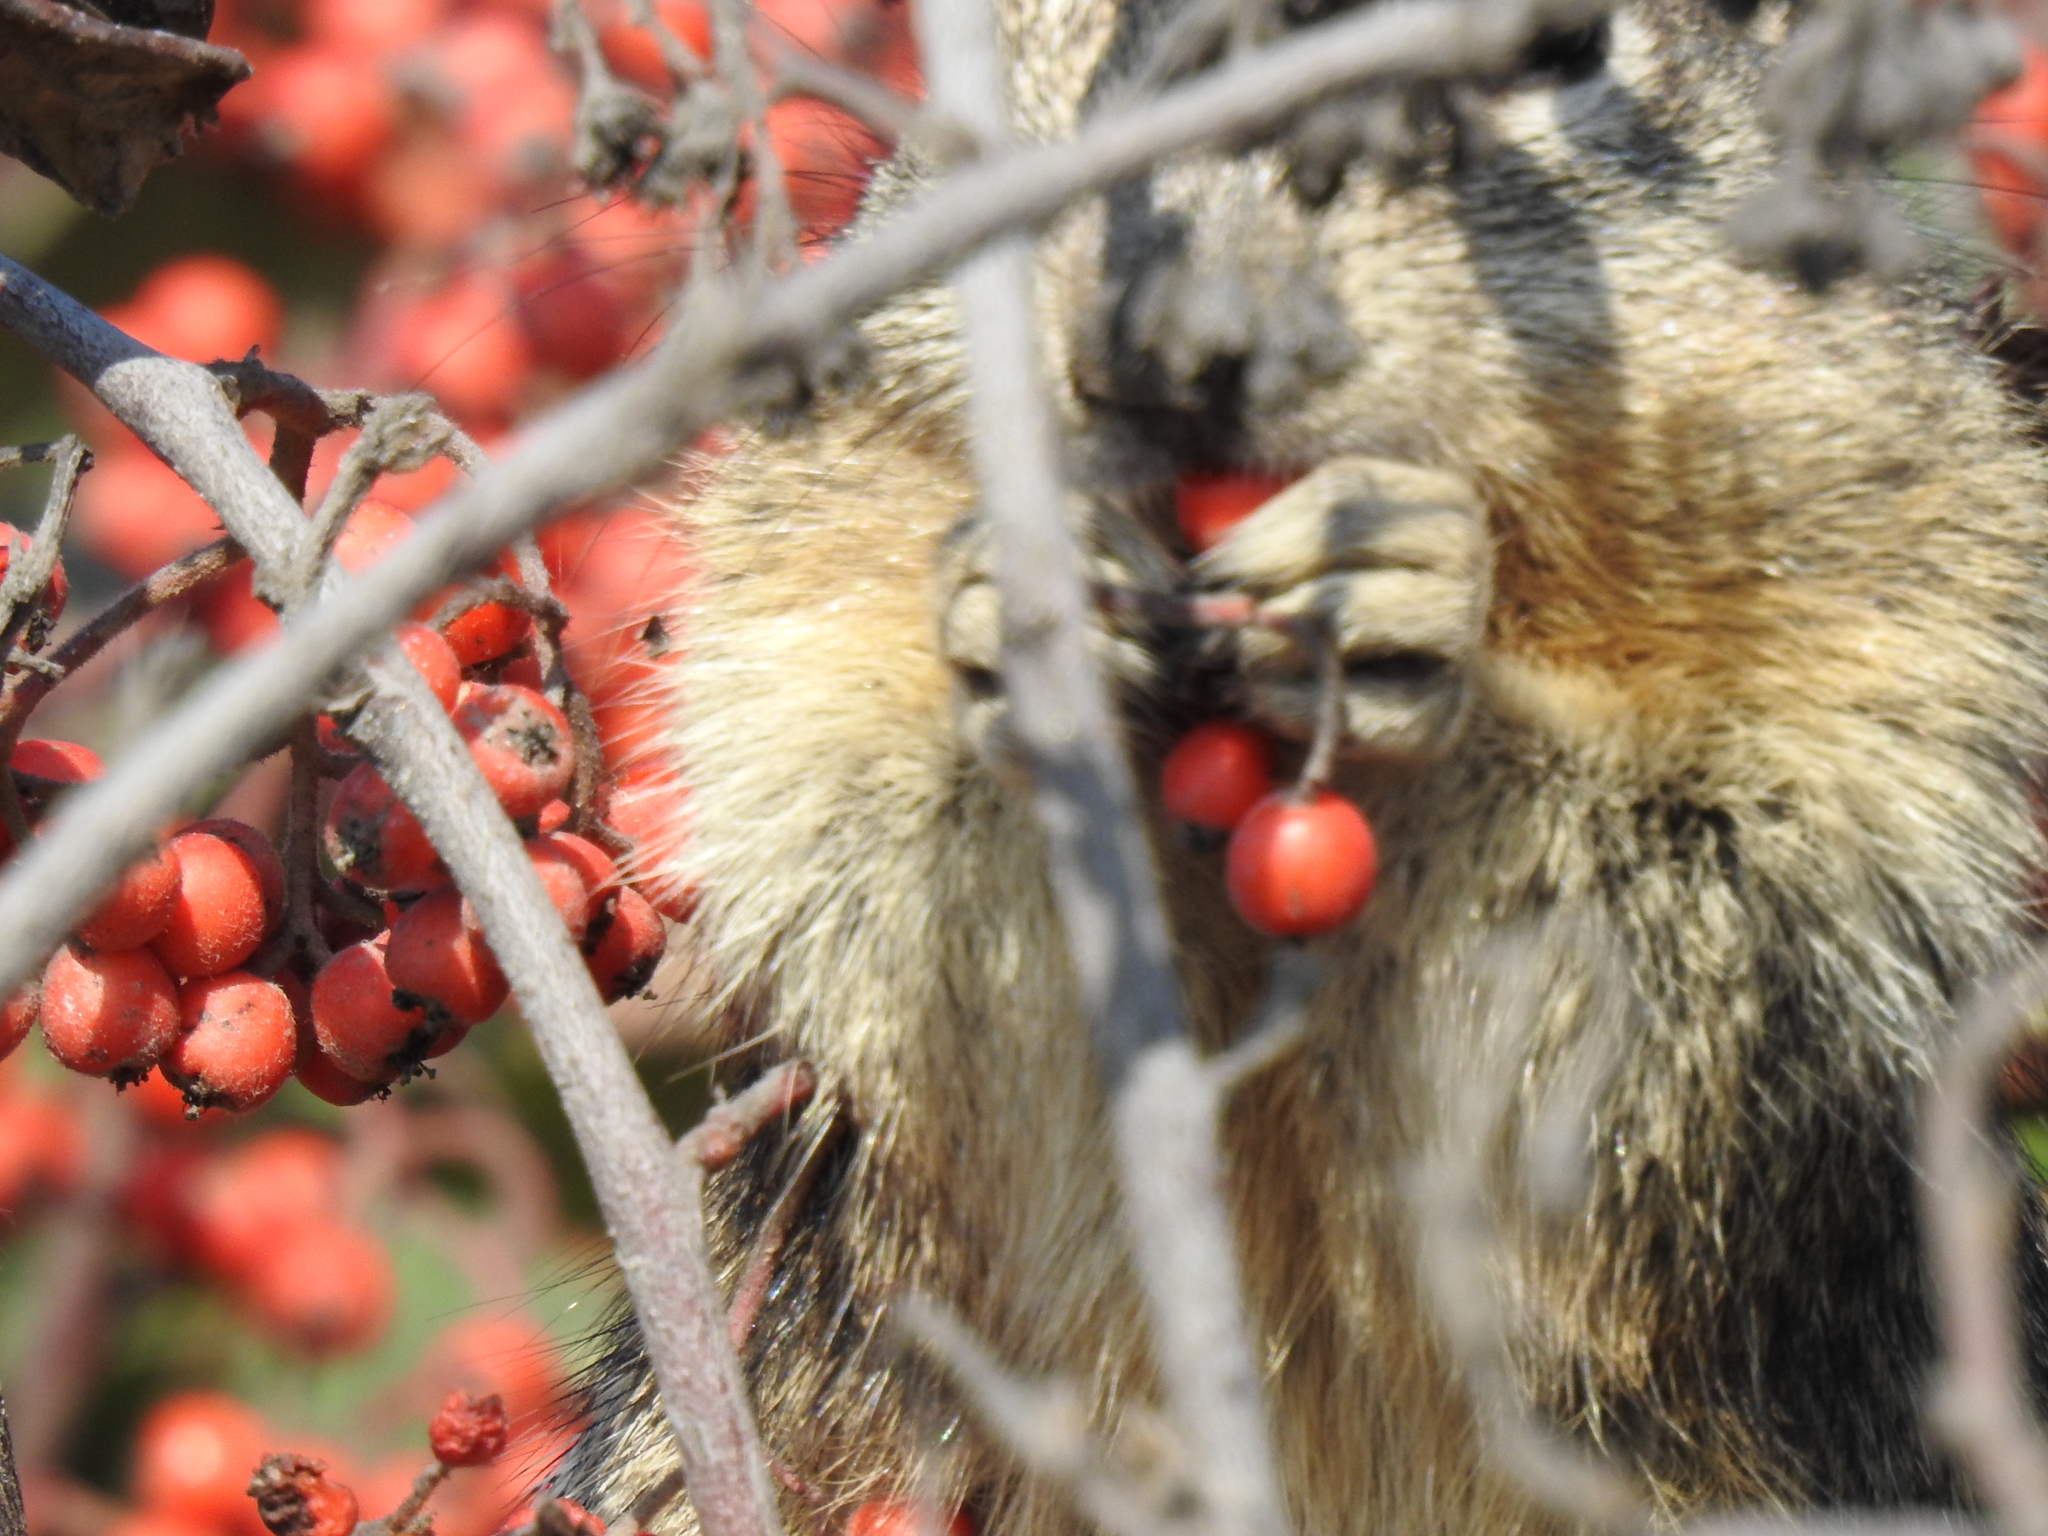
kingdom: Animalia
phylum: Chordata
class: Mammalia
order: Rodentia
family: Sciuridae
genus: Otospermophilus
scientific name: Otospermophilus beecheyi
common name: California ground squirrel
